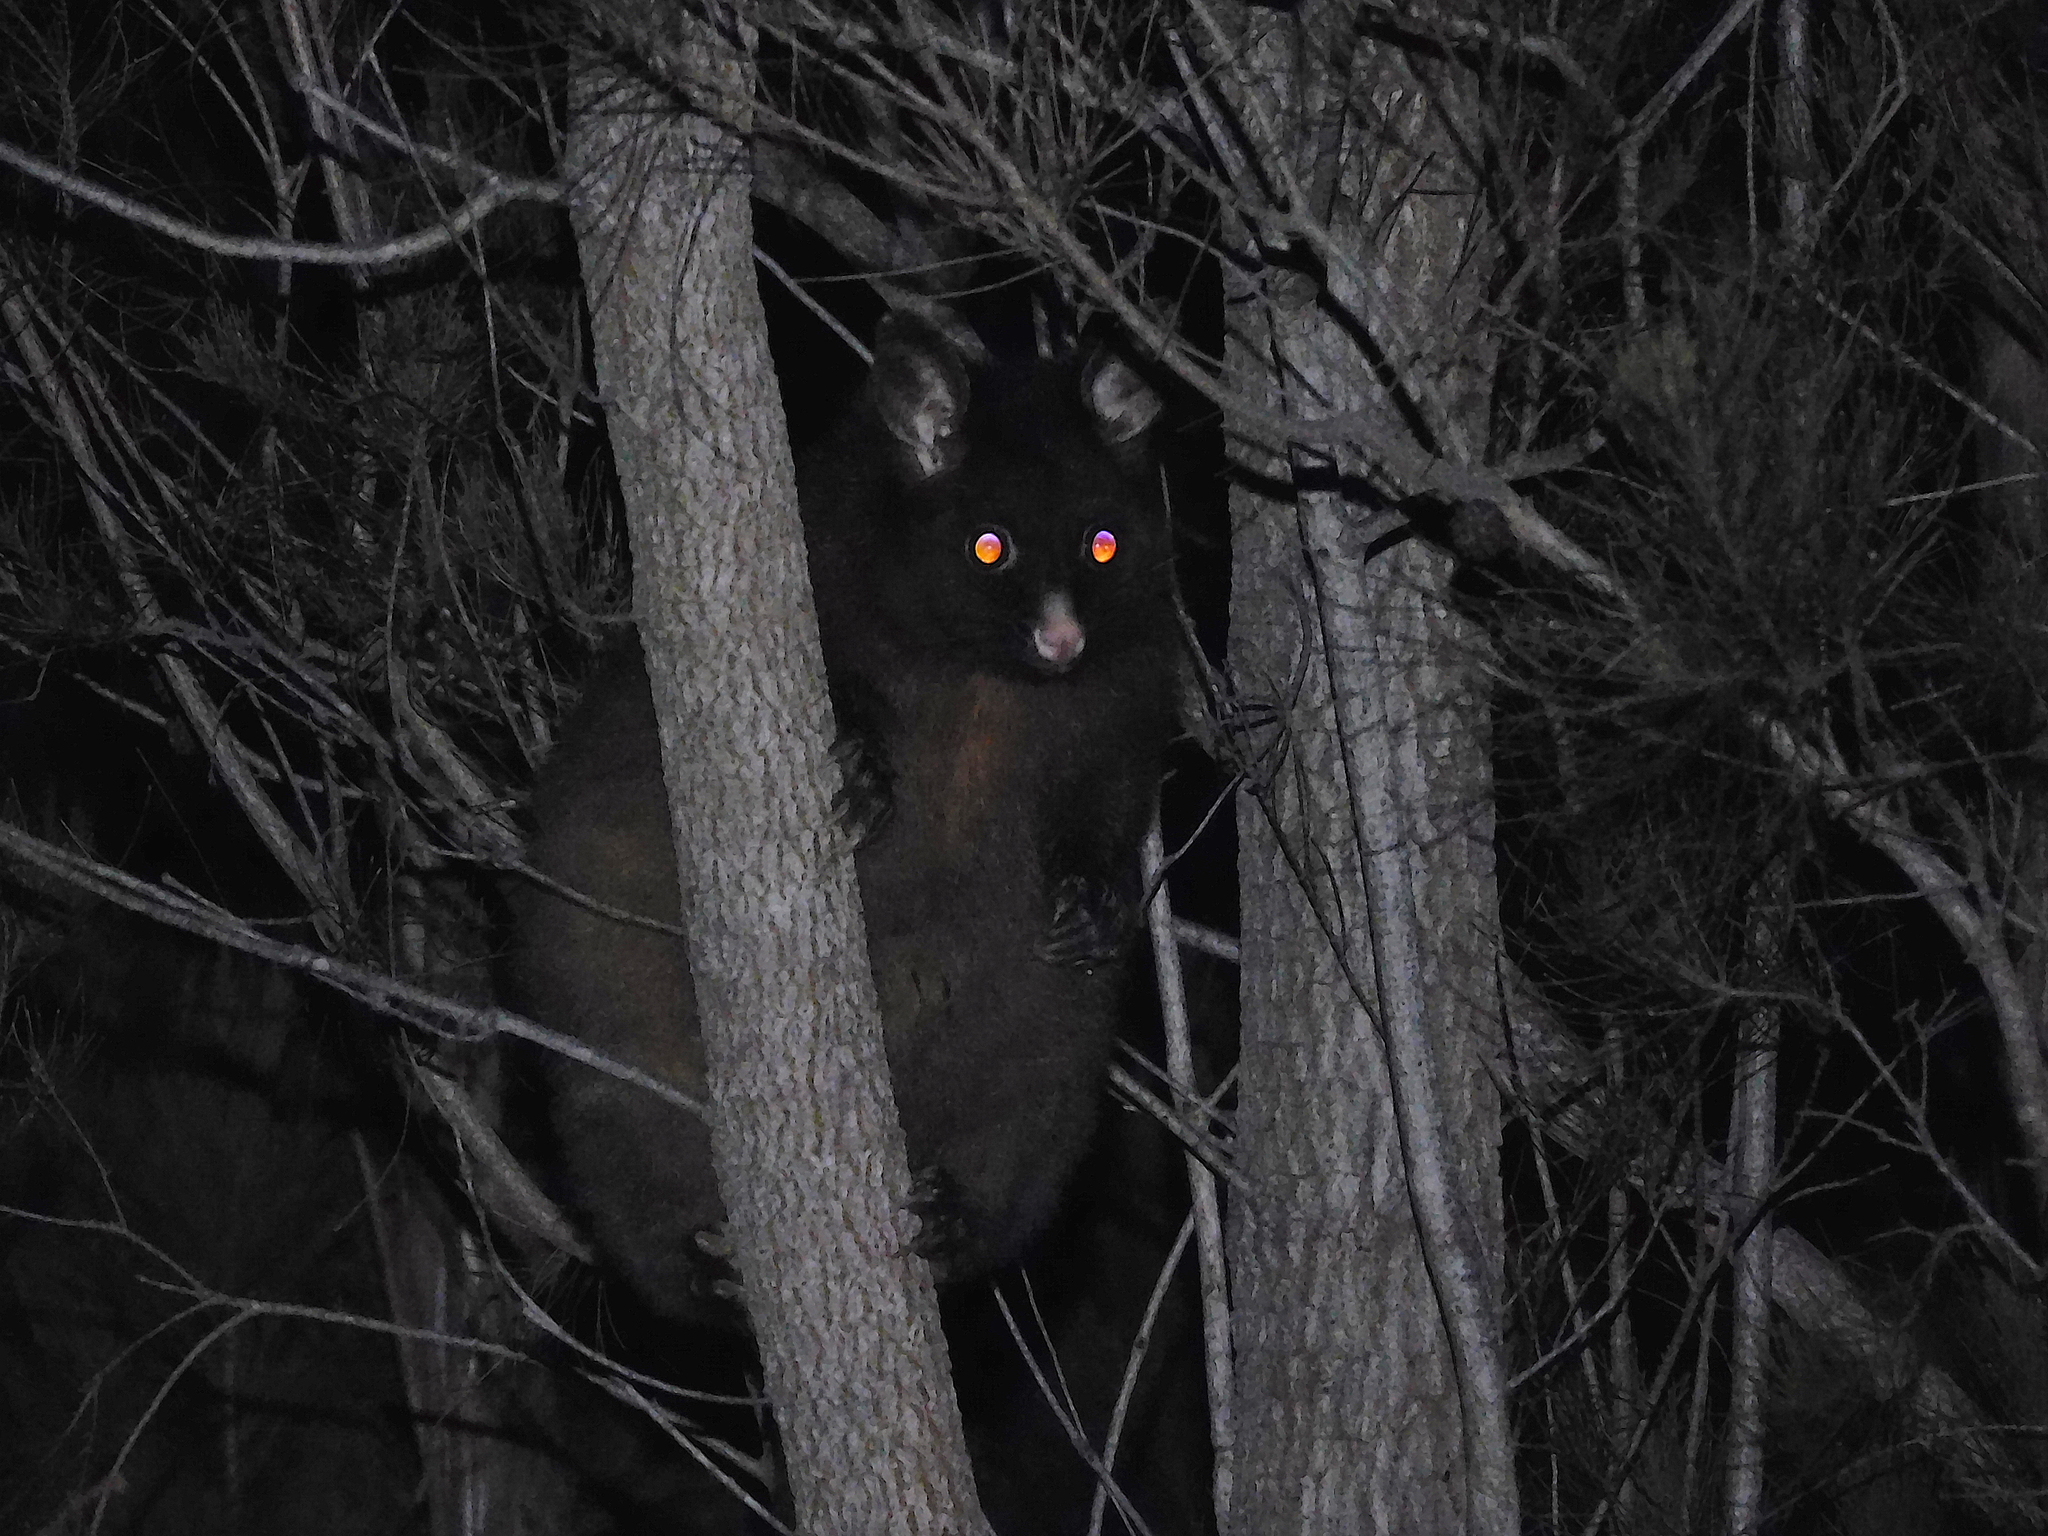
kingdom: Animalia
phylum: Chordata
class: Mammalia
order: Diprotodontia
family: Phalangeridae
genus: Trichosurus
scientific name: Trichosurus vulpecula
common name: Common brushtail
